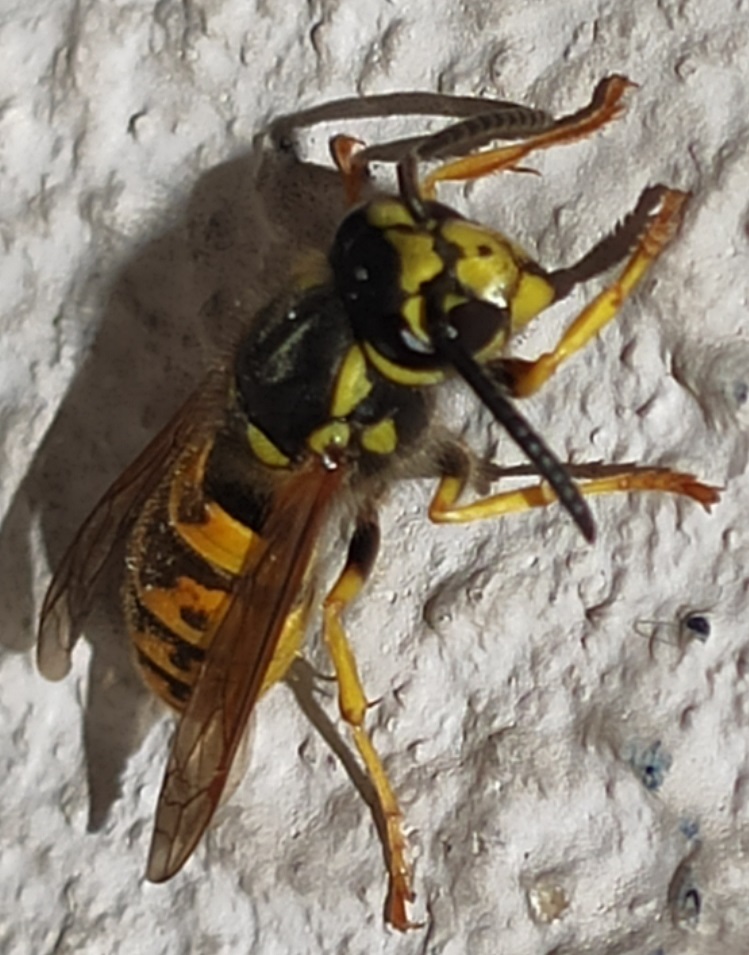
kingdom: Animalia
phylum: Arthropoda
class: Insecta
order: Hymenoptera
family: Vespidae
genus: Vespula
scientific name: Vespula germanica
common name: German wasp
